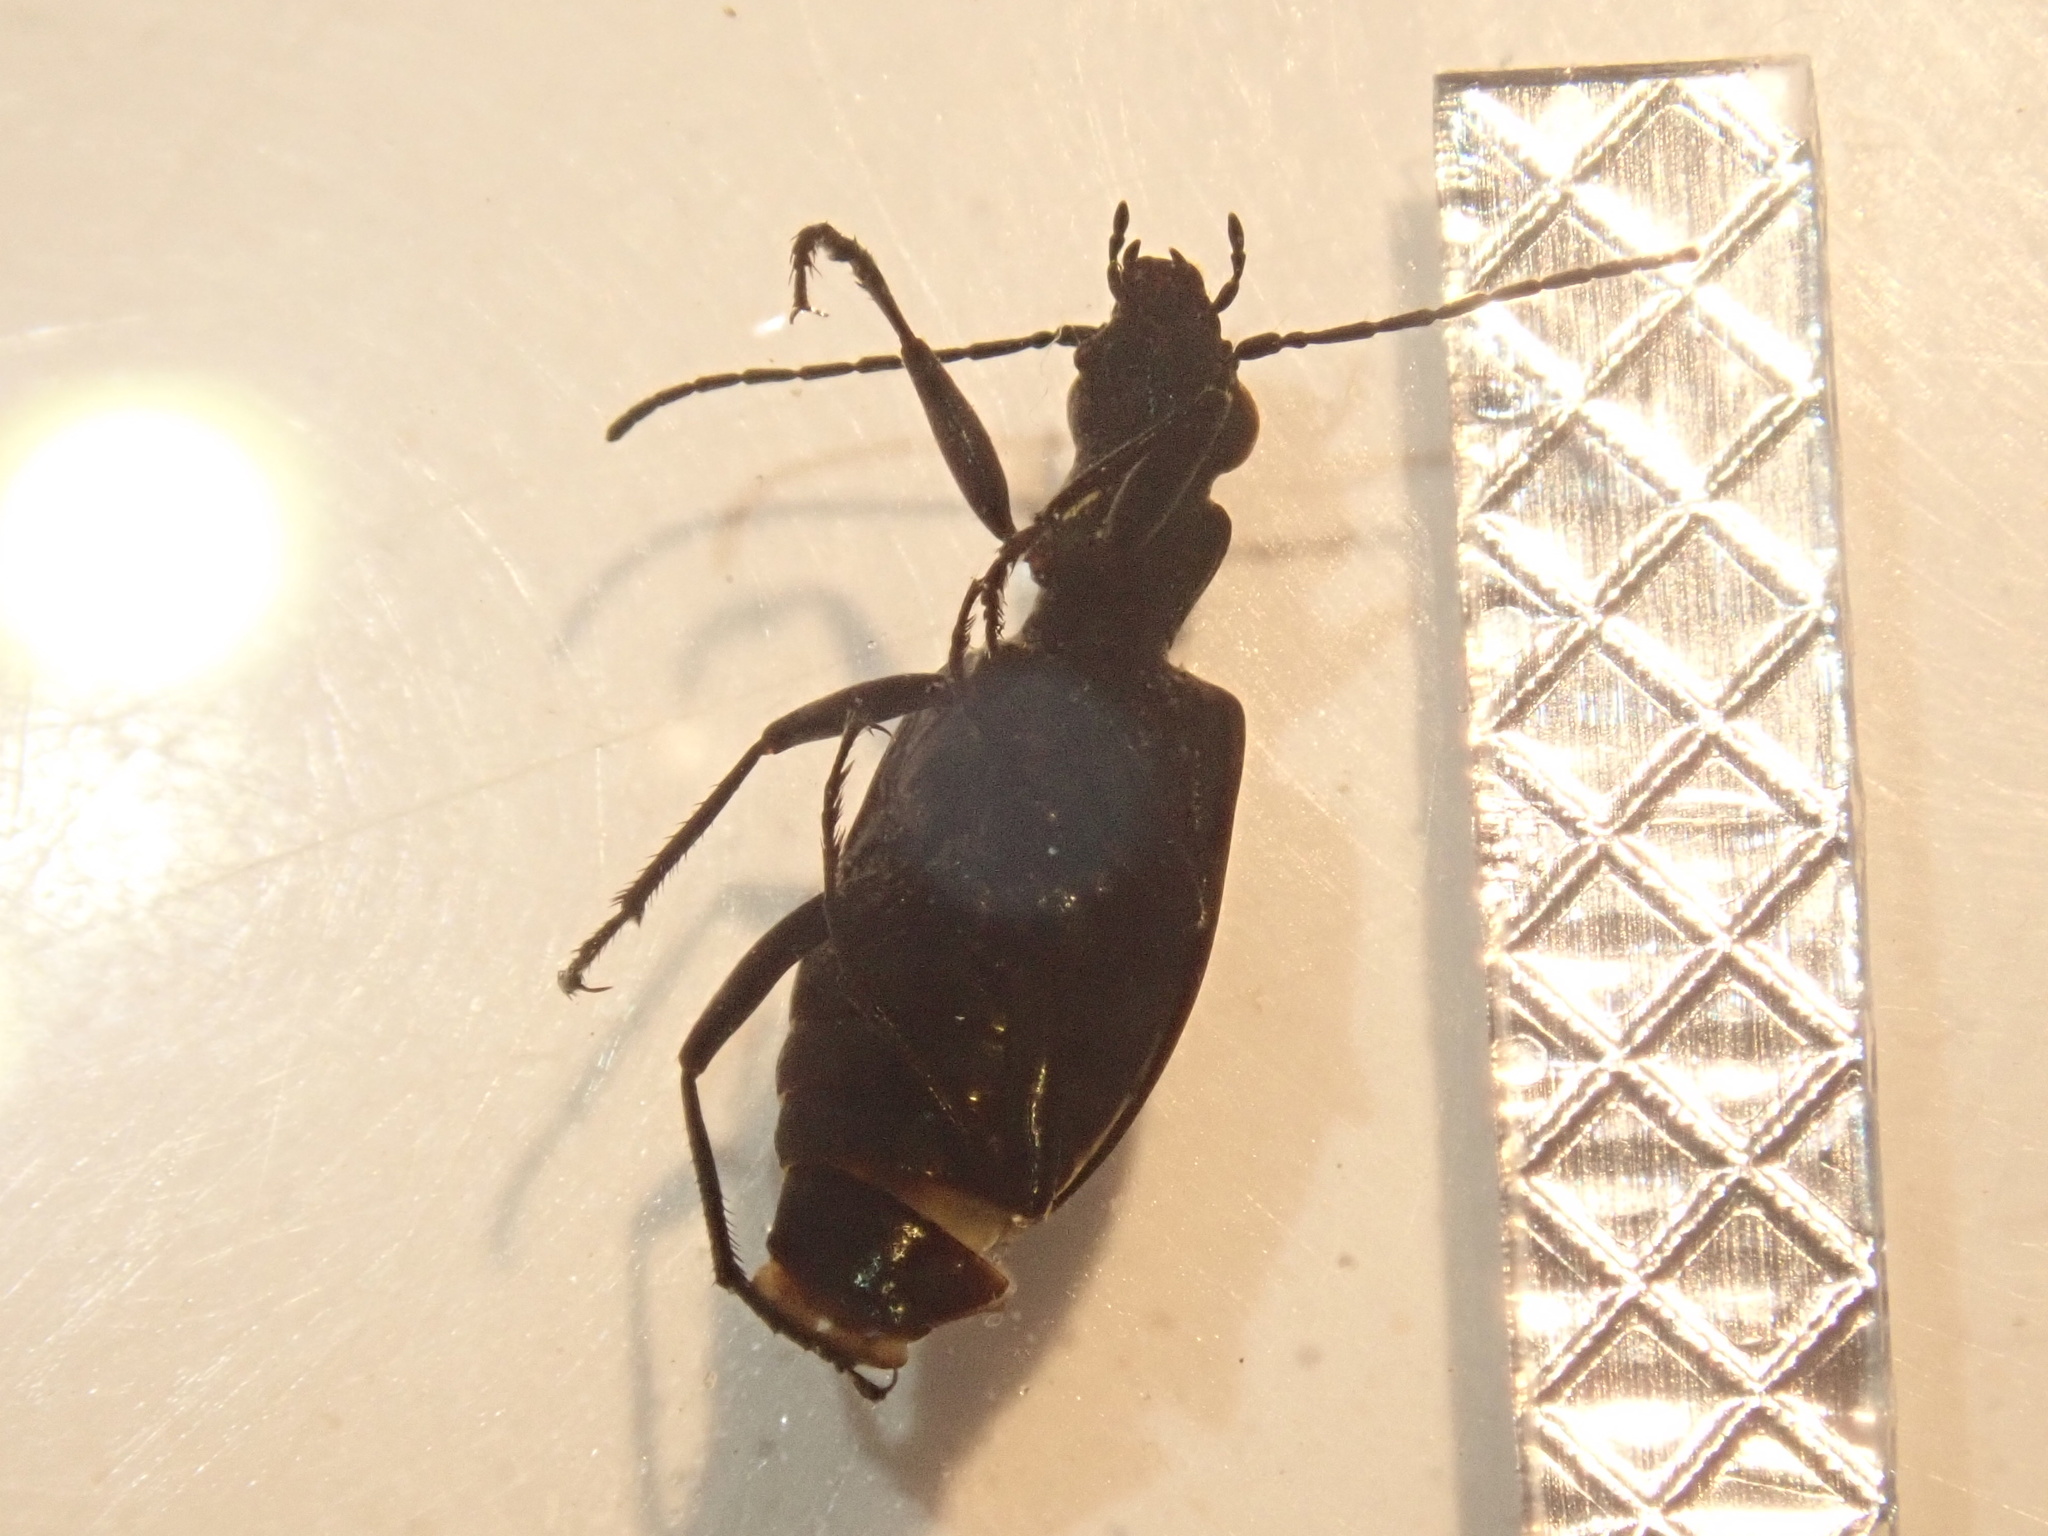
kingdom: Animalia
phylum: Arthropoda
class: Insecta
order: Coleoptera
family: Carabidae
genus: Actenonyx
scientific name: Actenonyx bembidioides
